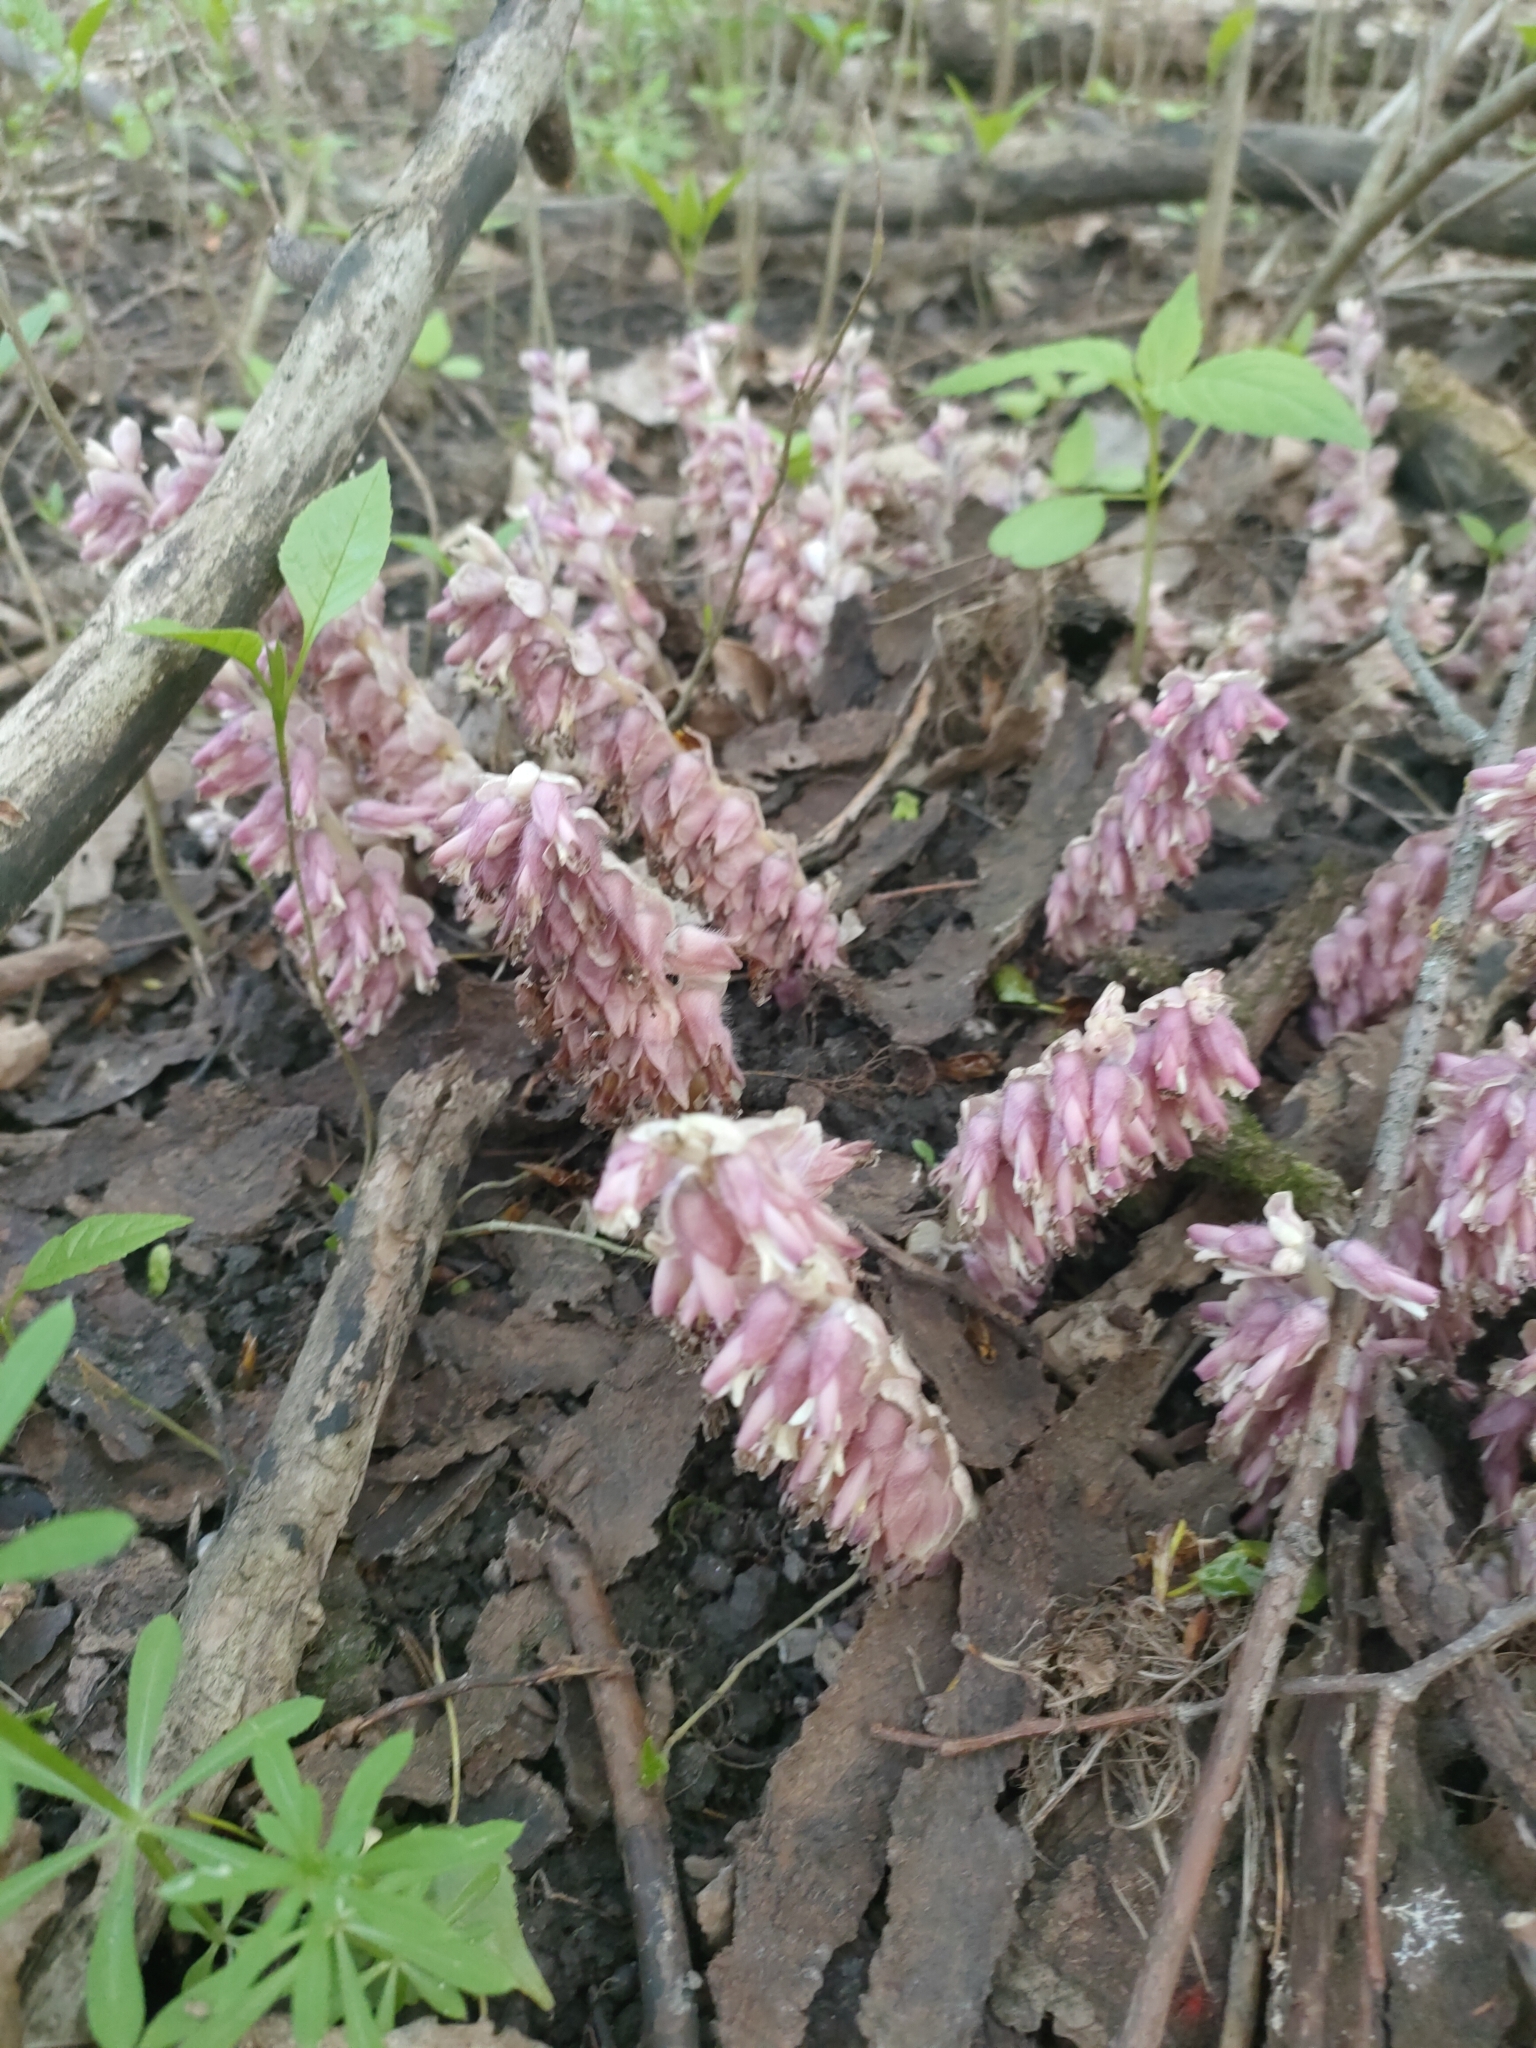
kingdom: Plantae
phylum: Tracheophyta
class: Magnoliopsida
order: Lamiales
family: Orobanchaceae
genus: Lathraea
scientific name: Lathraea squamaria
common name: Toothwort
